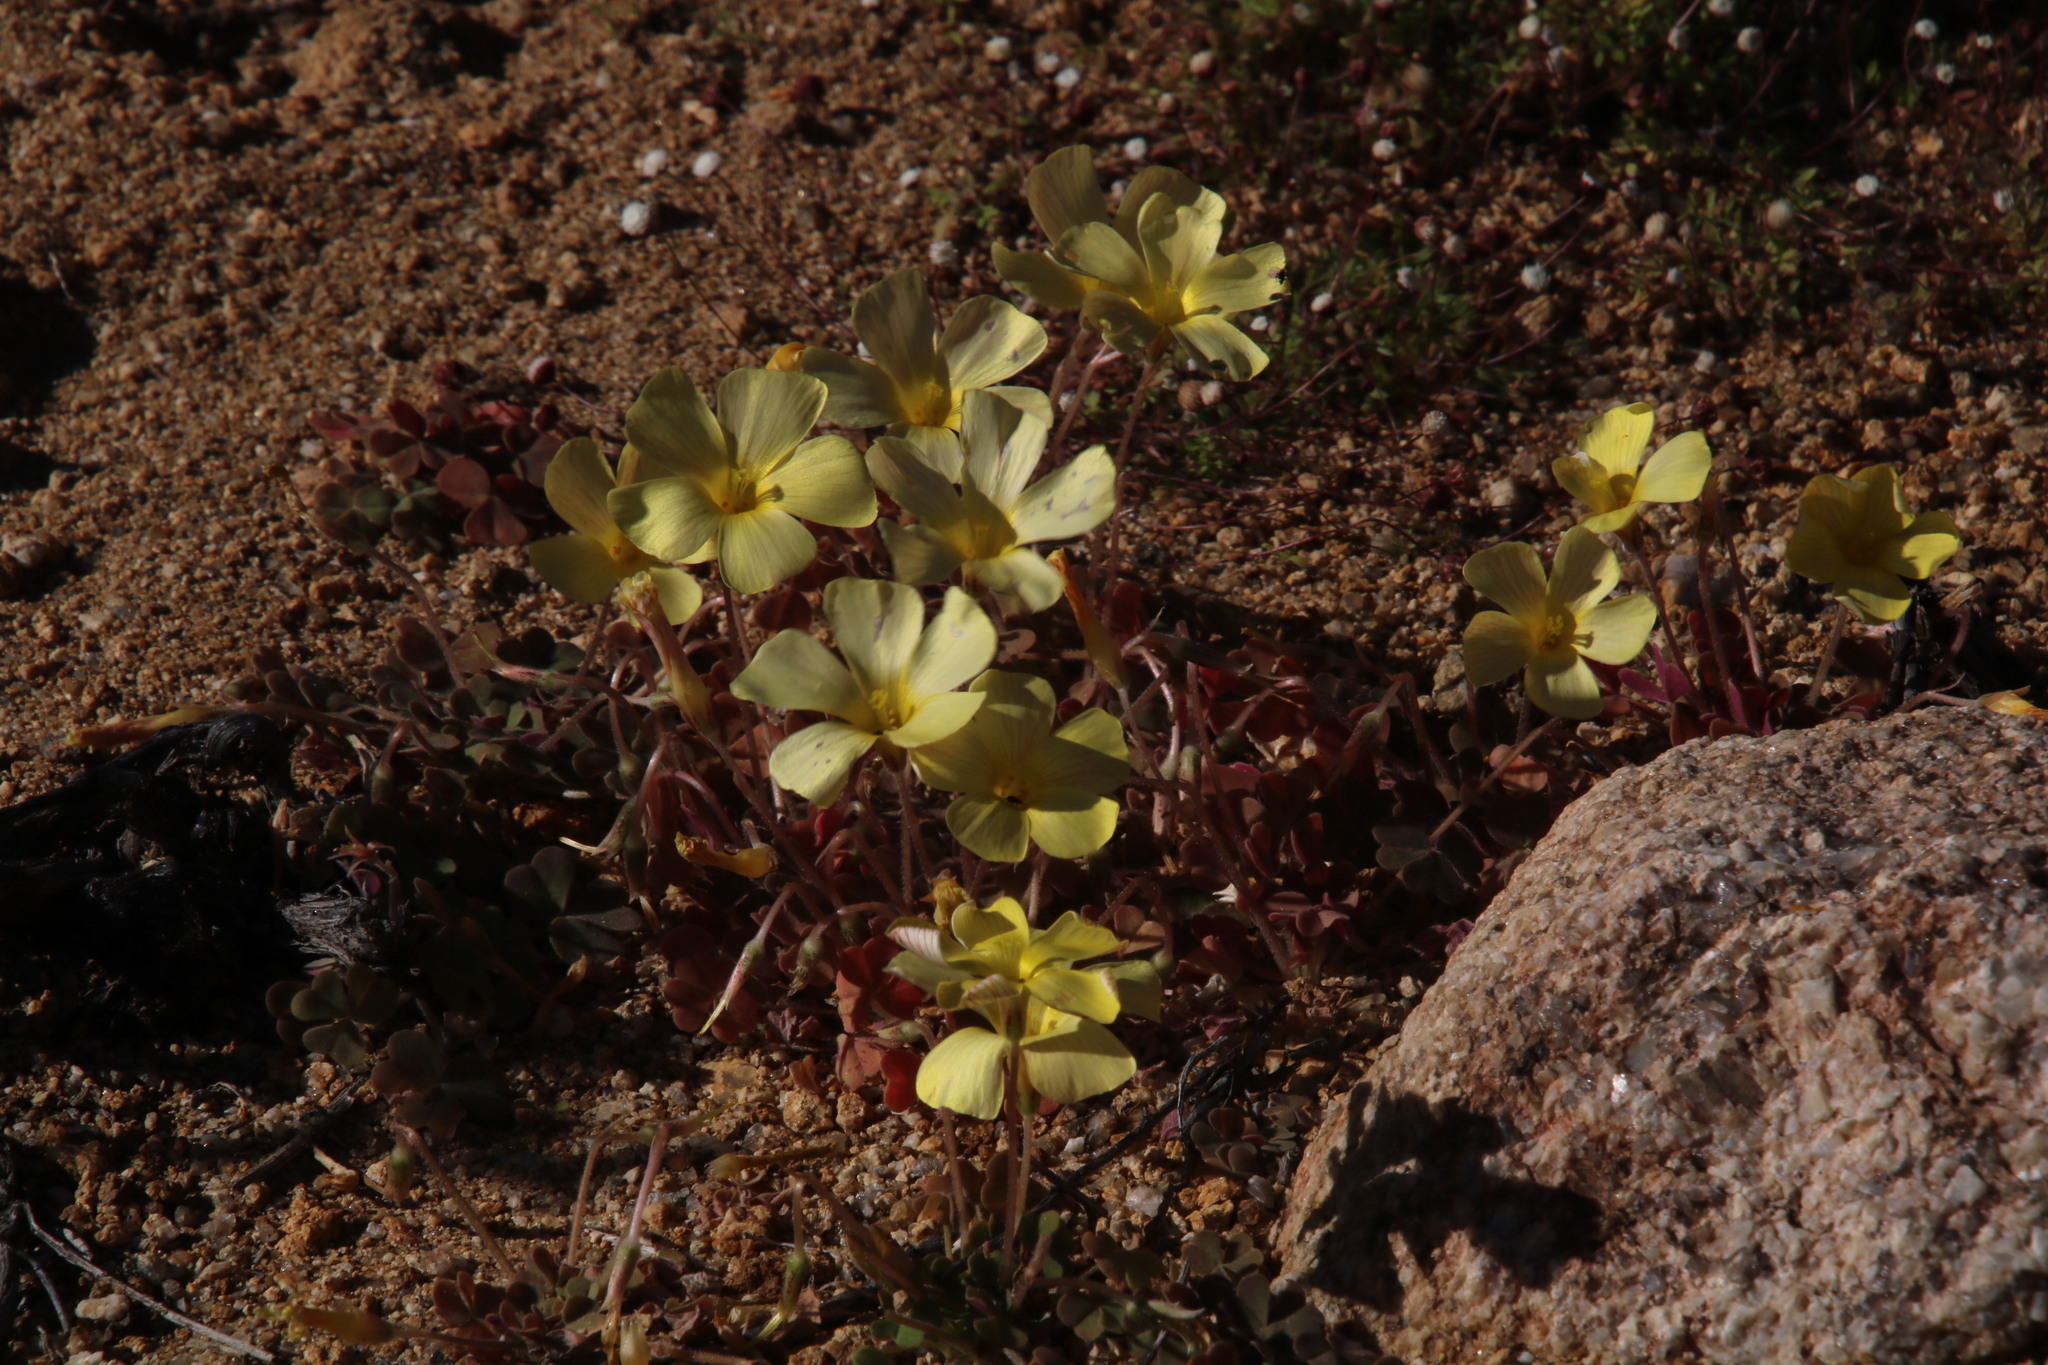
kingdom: Plantae
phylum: Tracheophyta
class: Magnoliopsida
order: Oxalidales
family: Oxalidaceae
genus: Oxalis
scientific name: Oxalis obtusa
